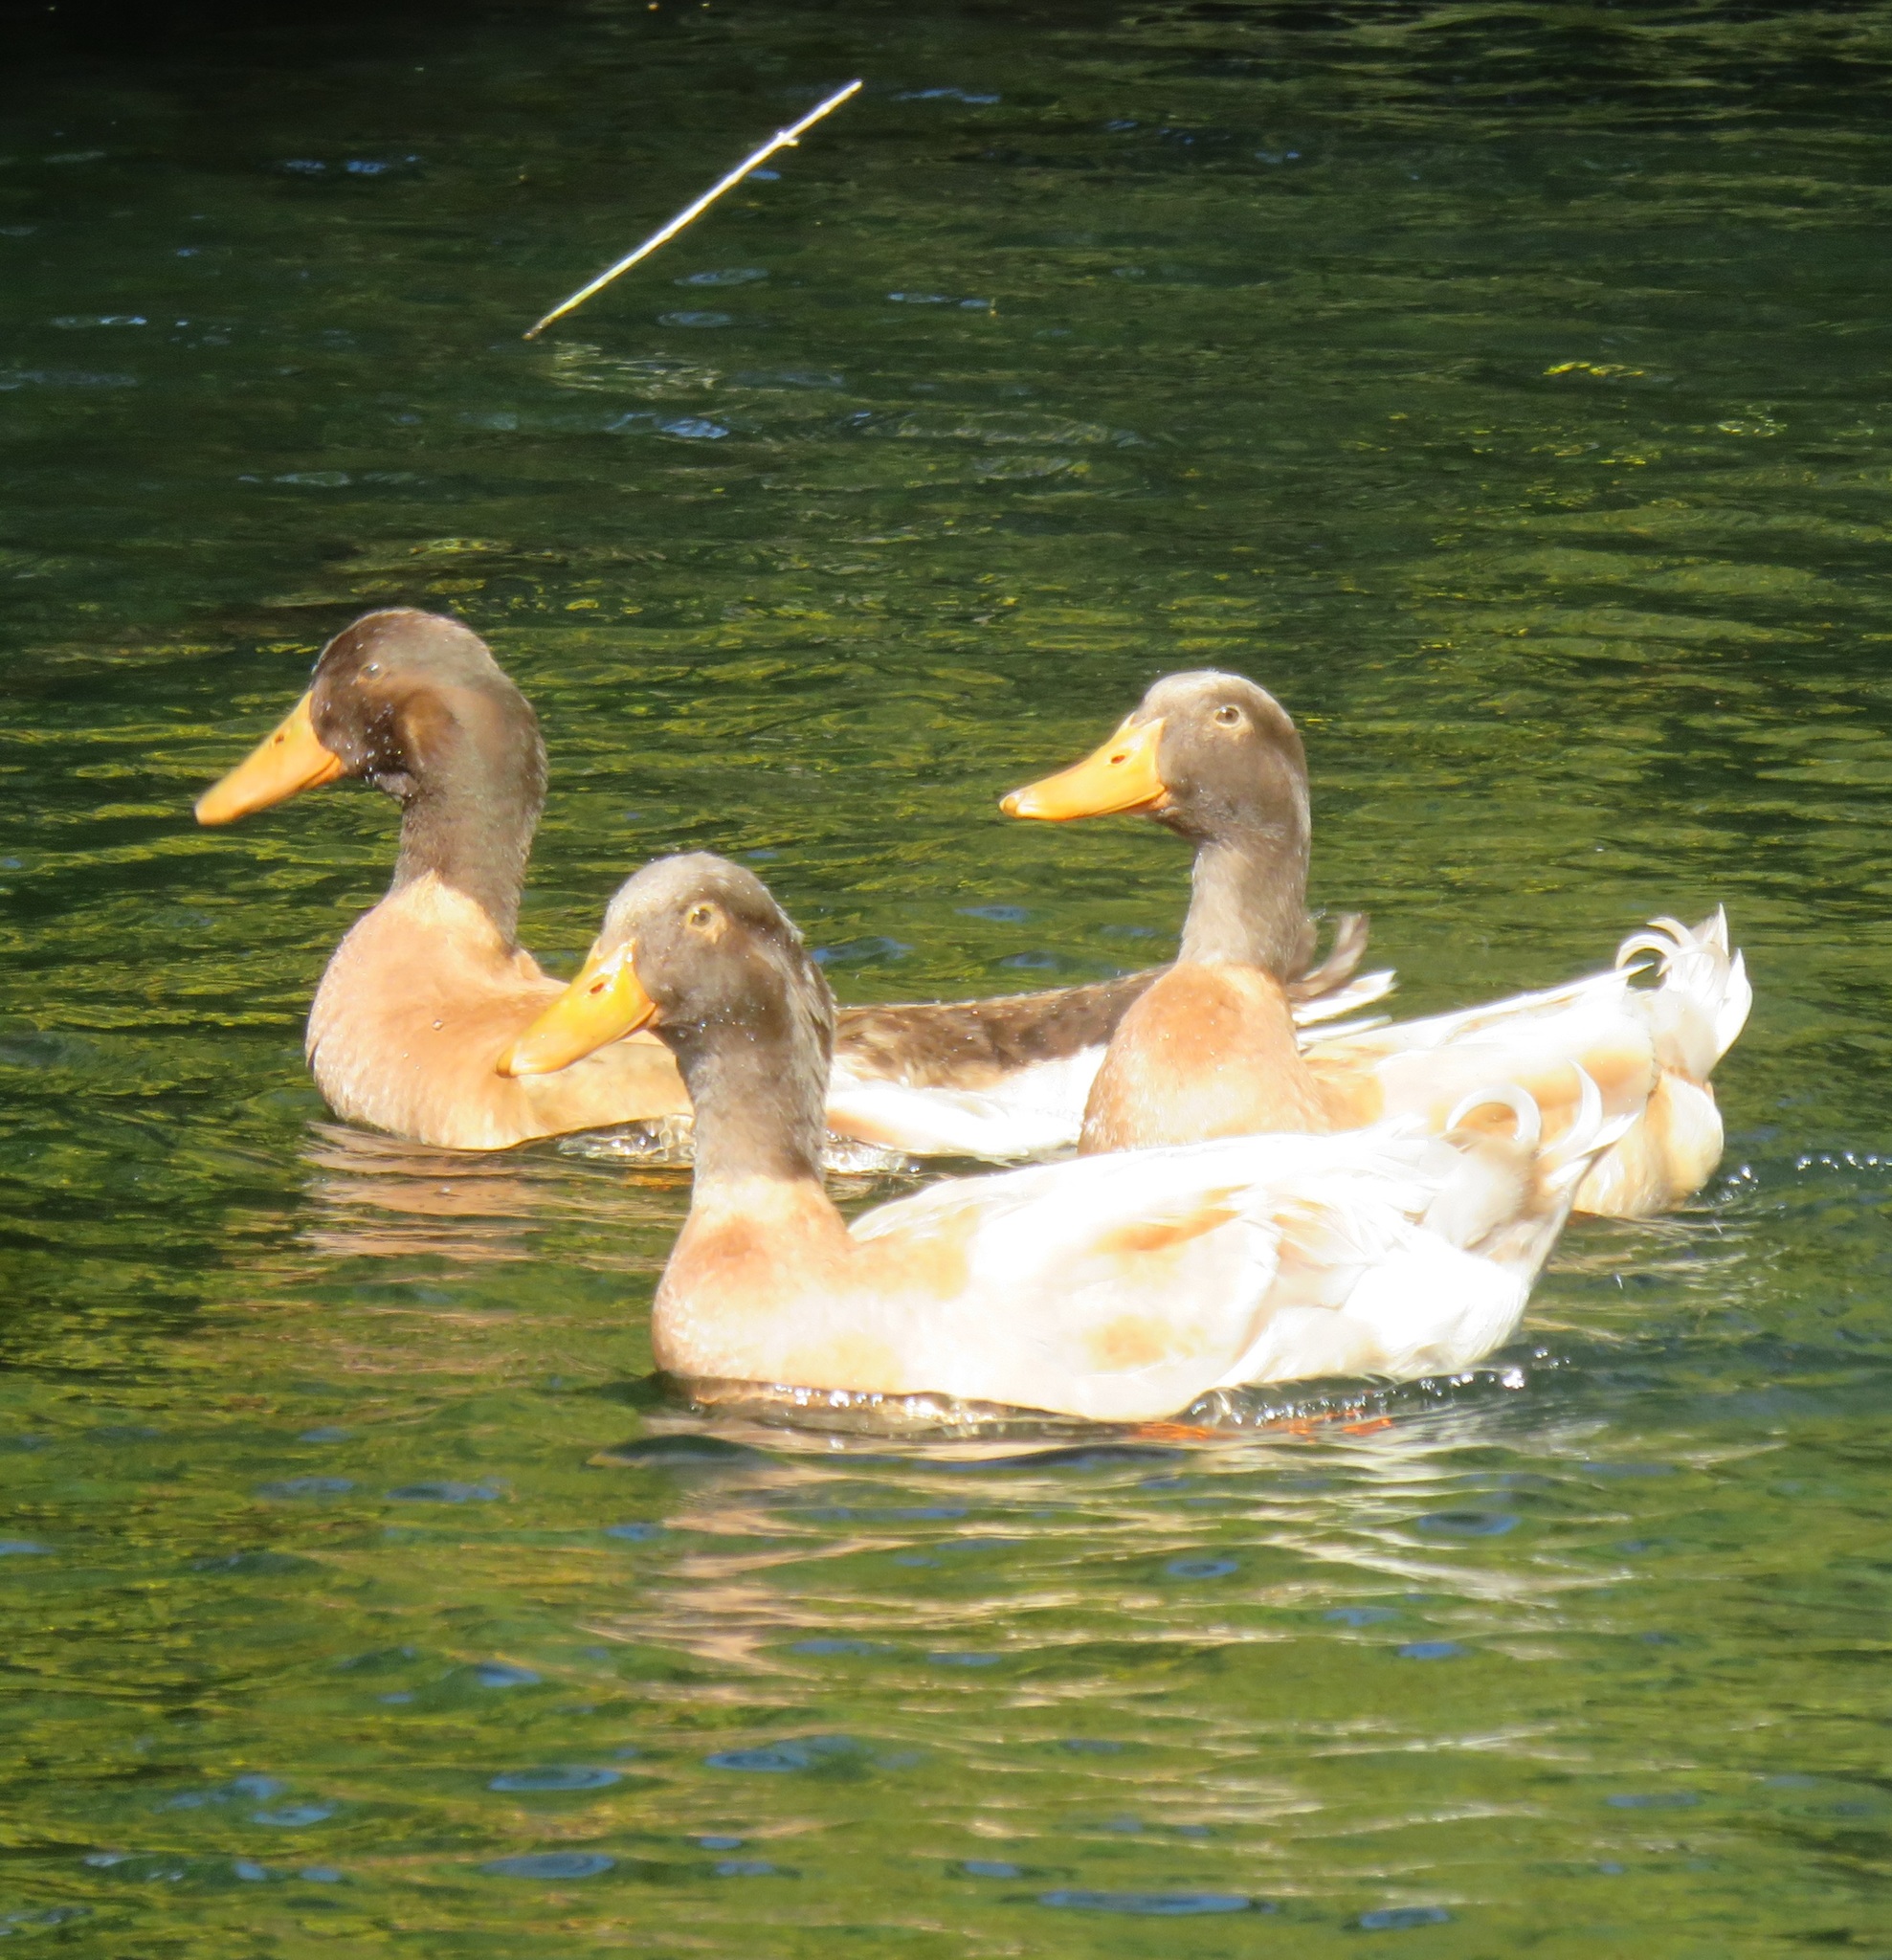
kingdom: Animalia
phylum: Chordata
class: Aves
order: Anseriformes
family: Anatidae
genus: Anas
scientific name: Anas platyrhynchos
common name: Mallard
